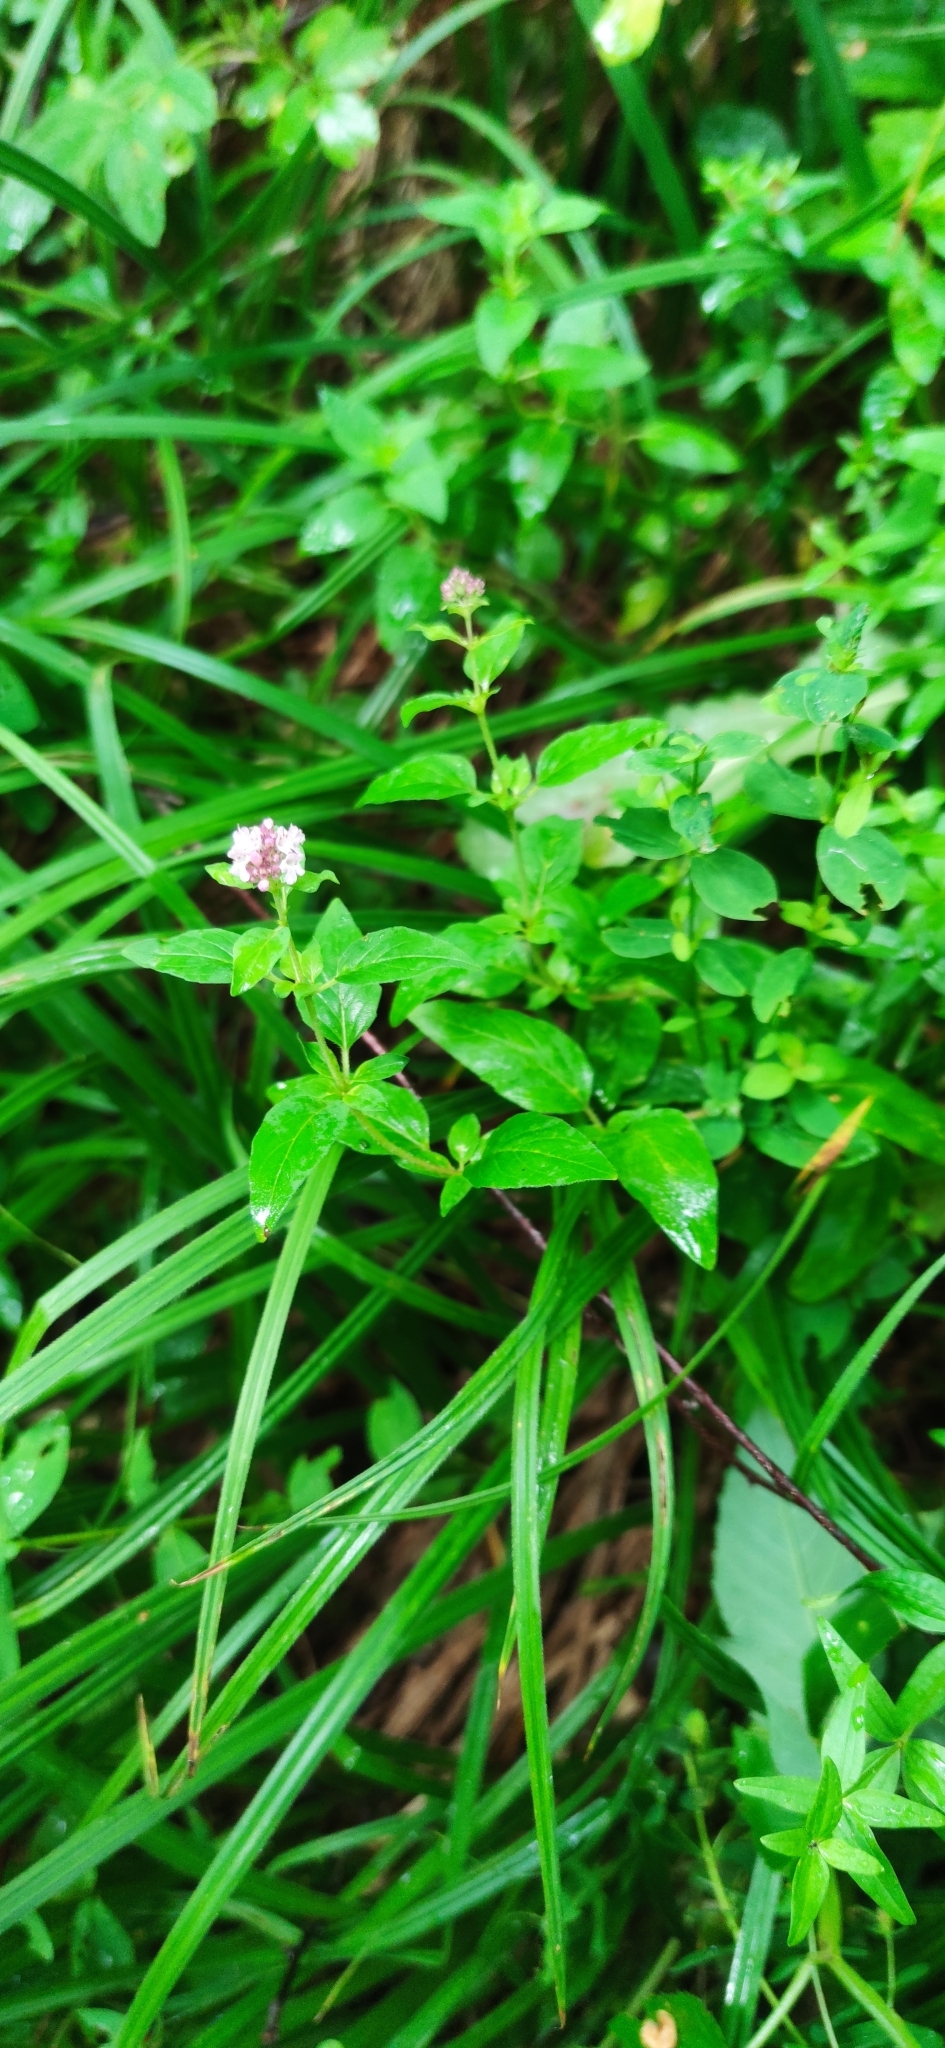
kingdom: Plantae
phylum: Tracheophyta
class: Magnoliopsida
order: Lamiales
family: Lamiaceae
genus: Origanum
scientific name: Origanum vulgare
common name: Wild marjoram
